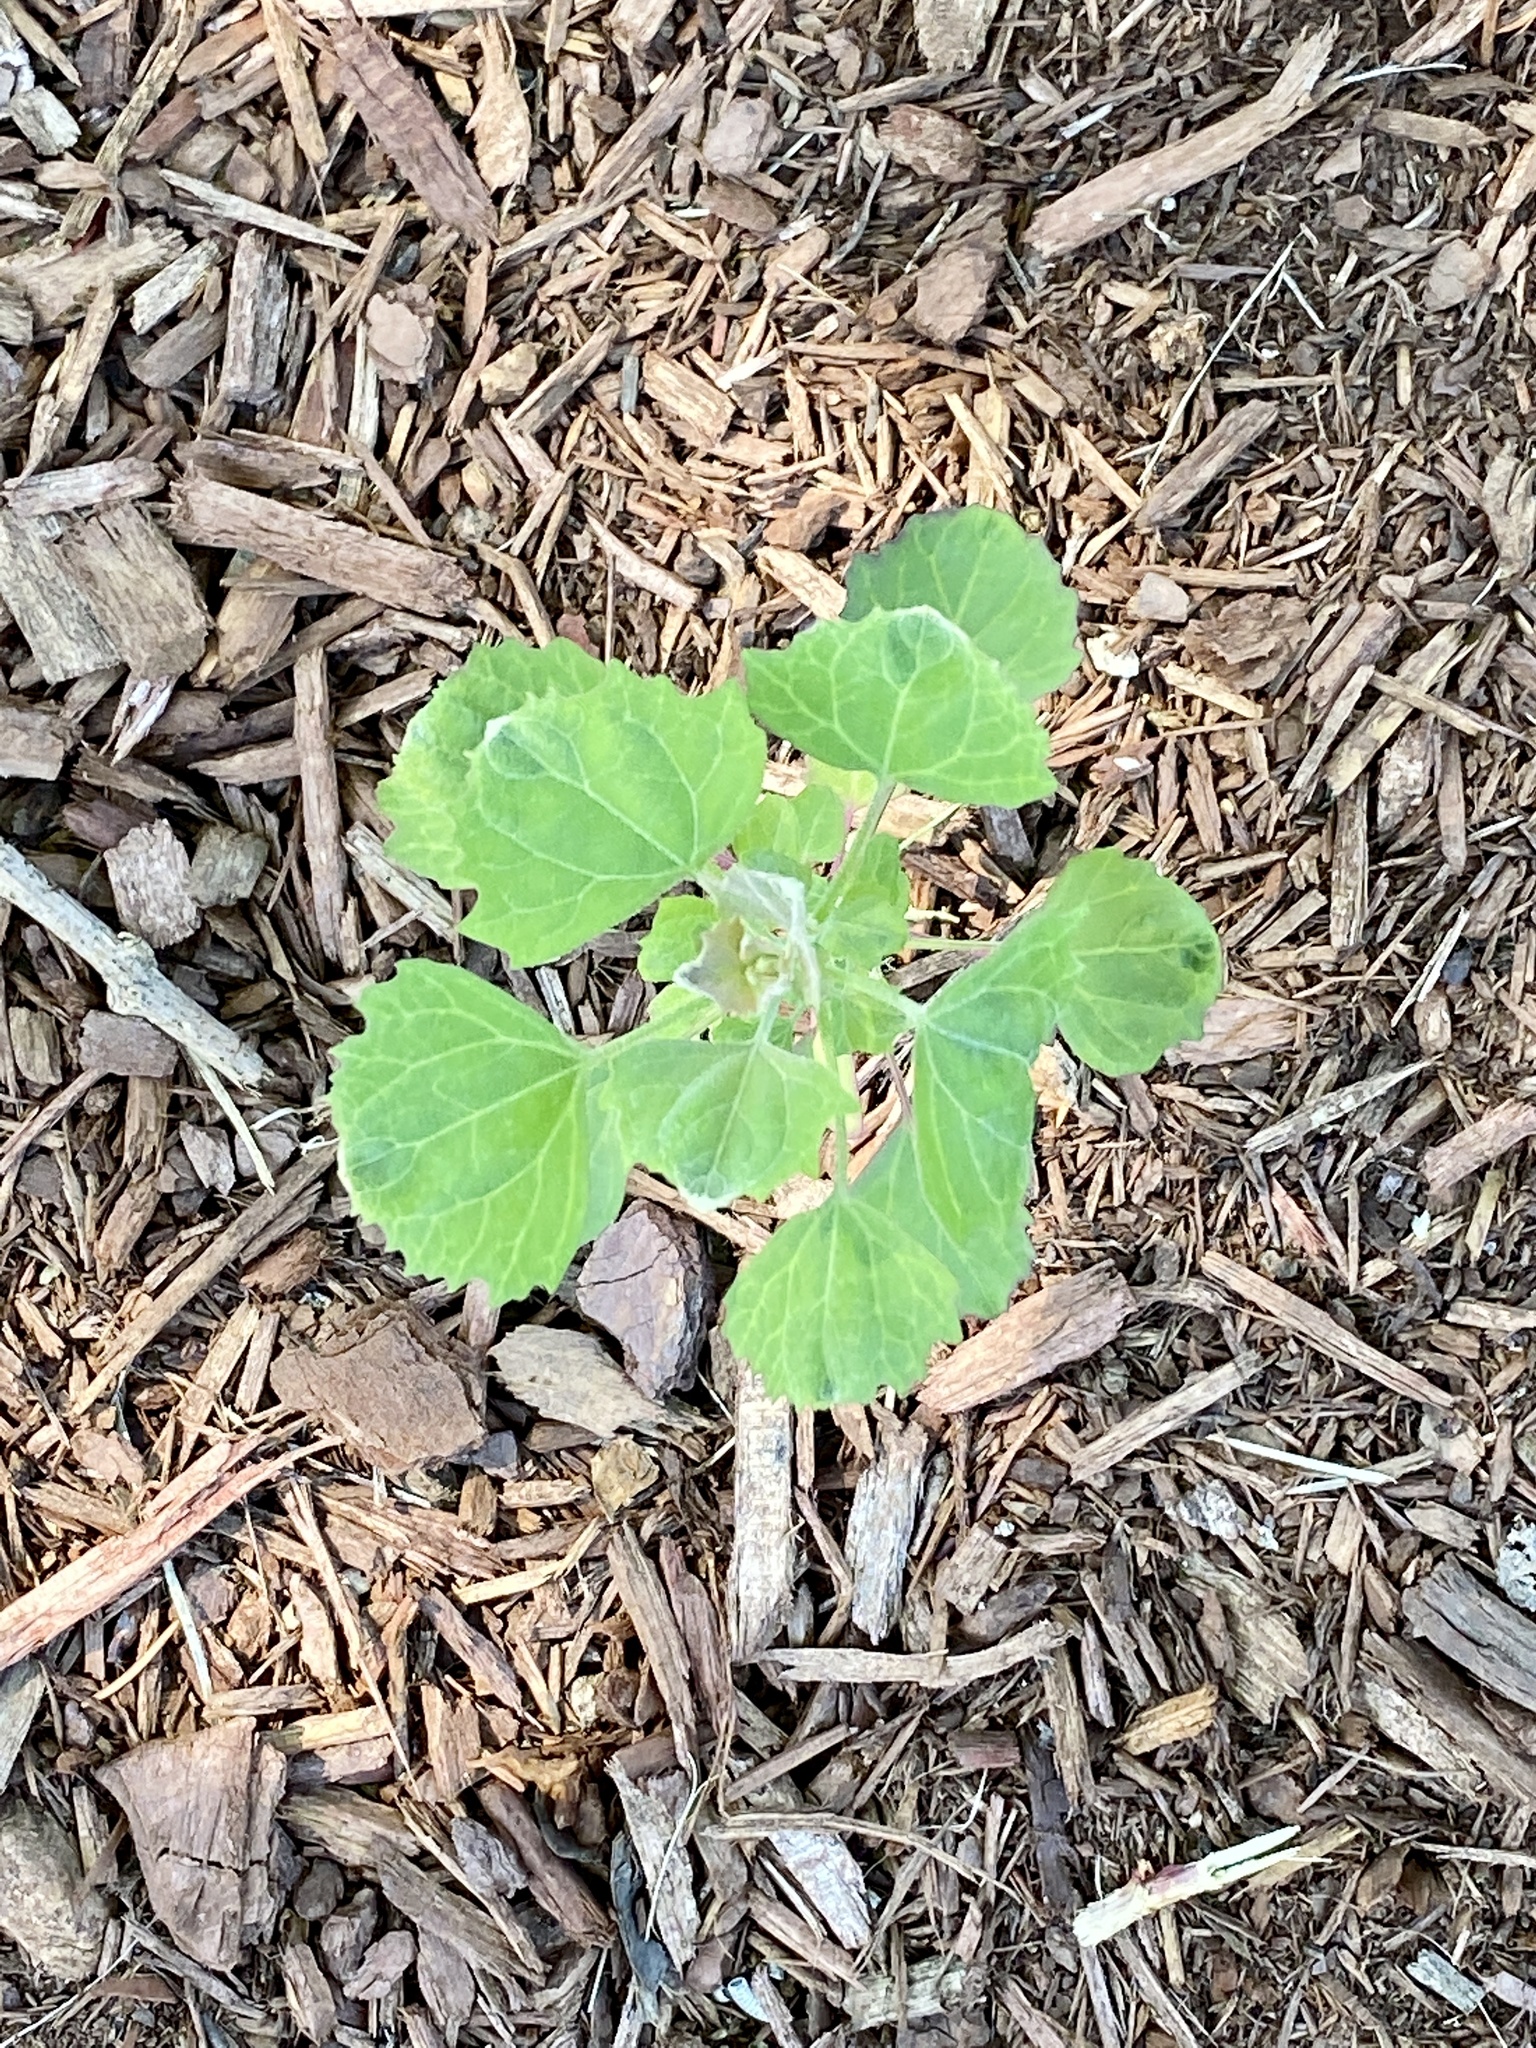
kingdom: Plantae
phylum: Tracheophyta
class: Magnoliopsida
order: Caryophyllales
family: Amaranthaceae
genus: Chenopodium
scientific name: Chenopodium album
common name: Fat-hen
